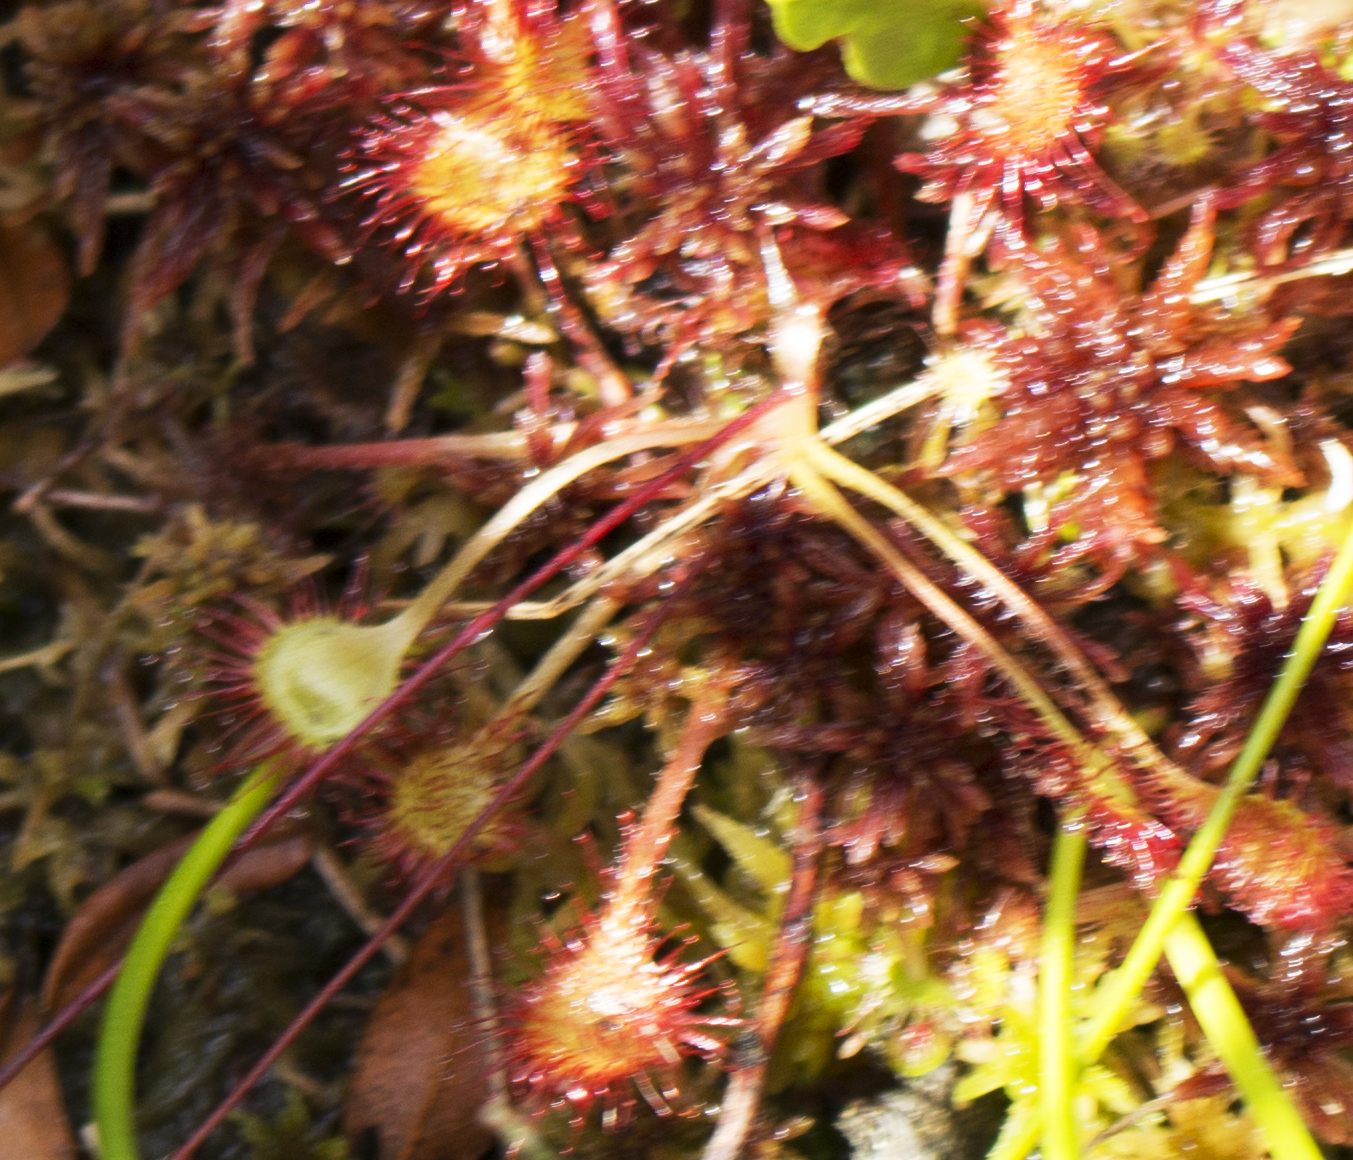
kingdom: Plantae
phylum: Tracheophyta
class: Magnoliopsida
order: Caryophyllales
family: Droseraceae
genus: Drosera
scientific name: Drosera rotundifolia
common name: Round-leaved sundew
